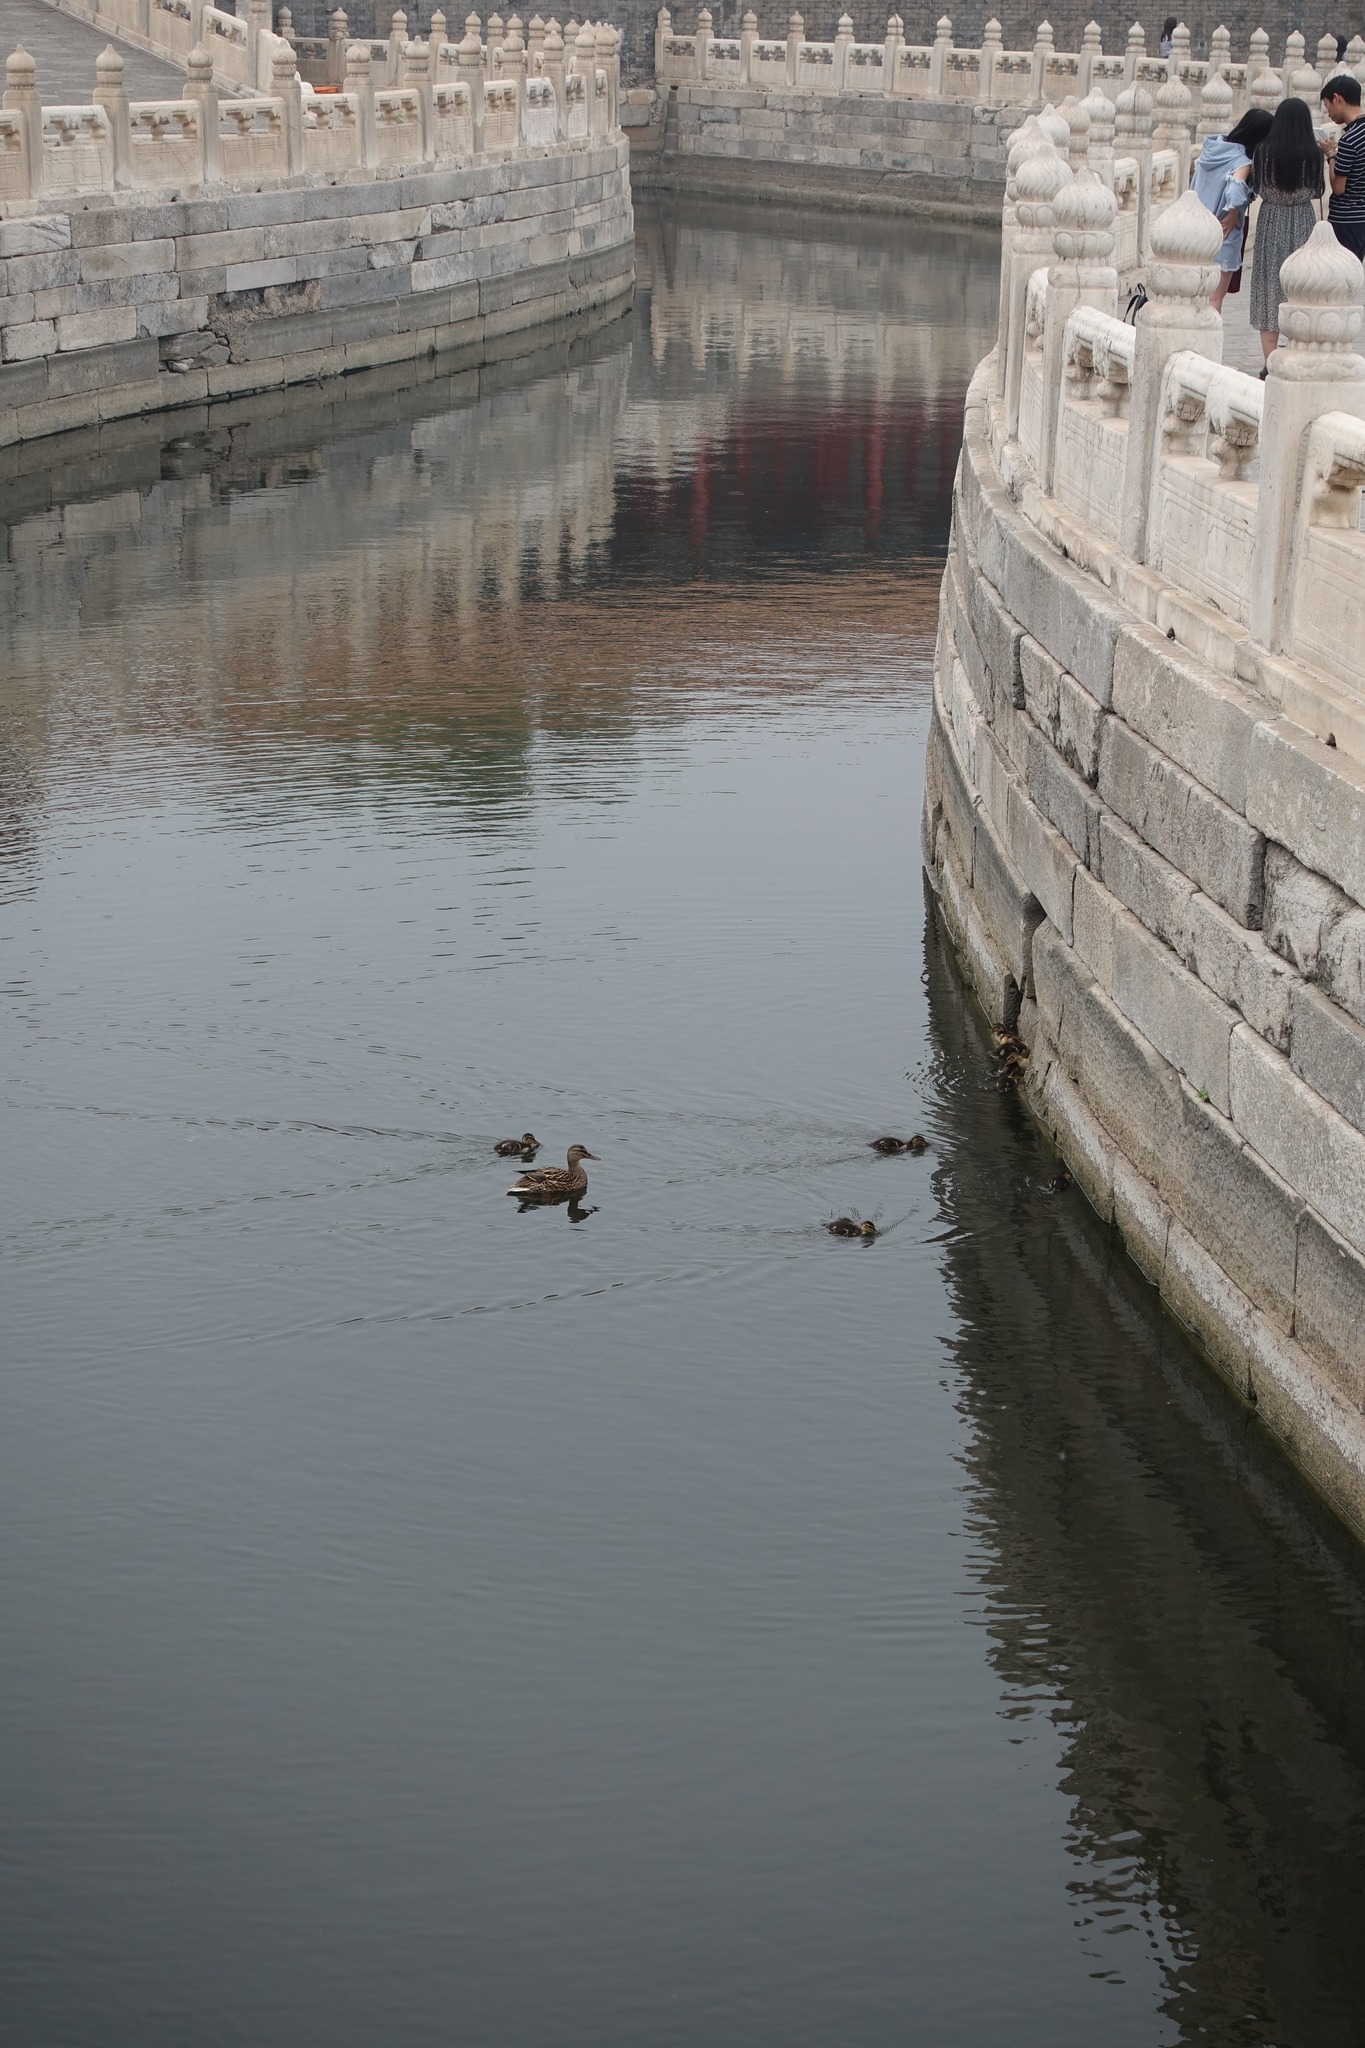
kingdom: Animalia
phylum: Chordata
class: Aves
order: Anseriformes
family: Anatidae
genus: Anas
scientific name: Anas platyrhynchos
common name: Mallard
